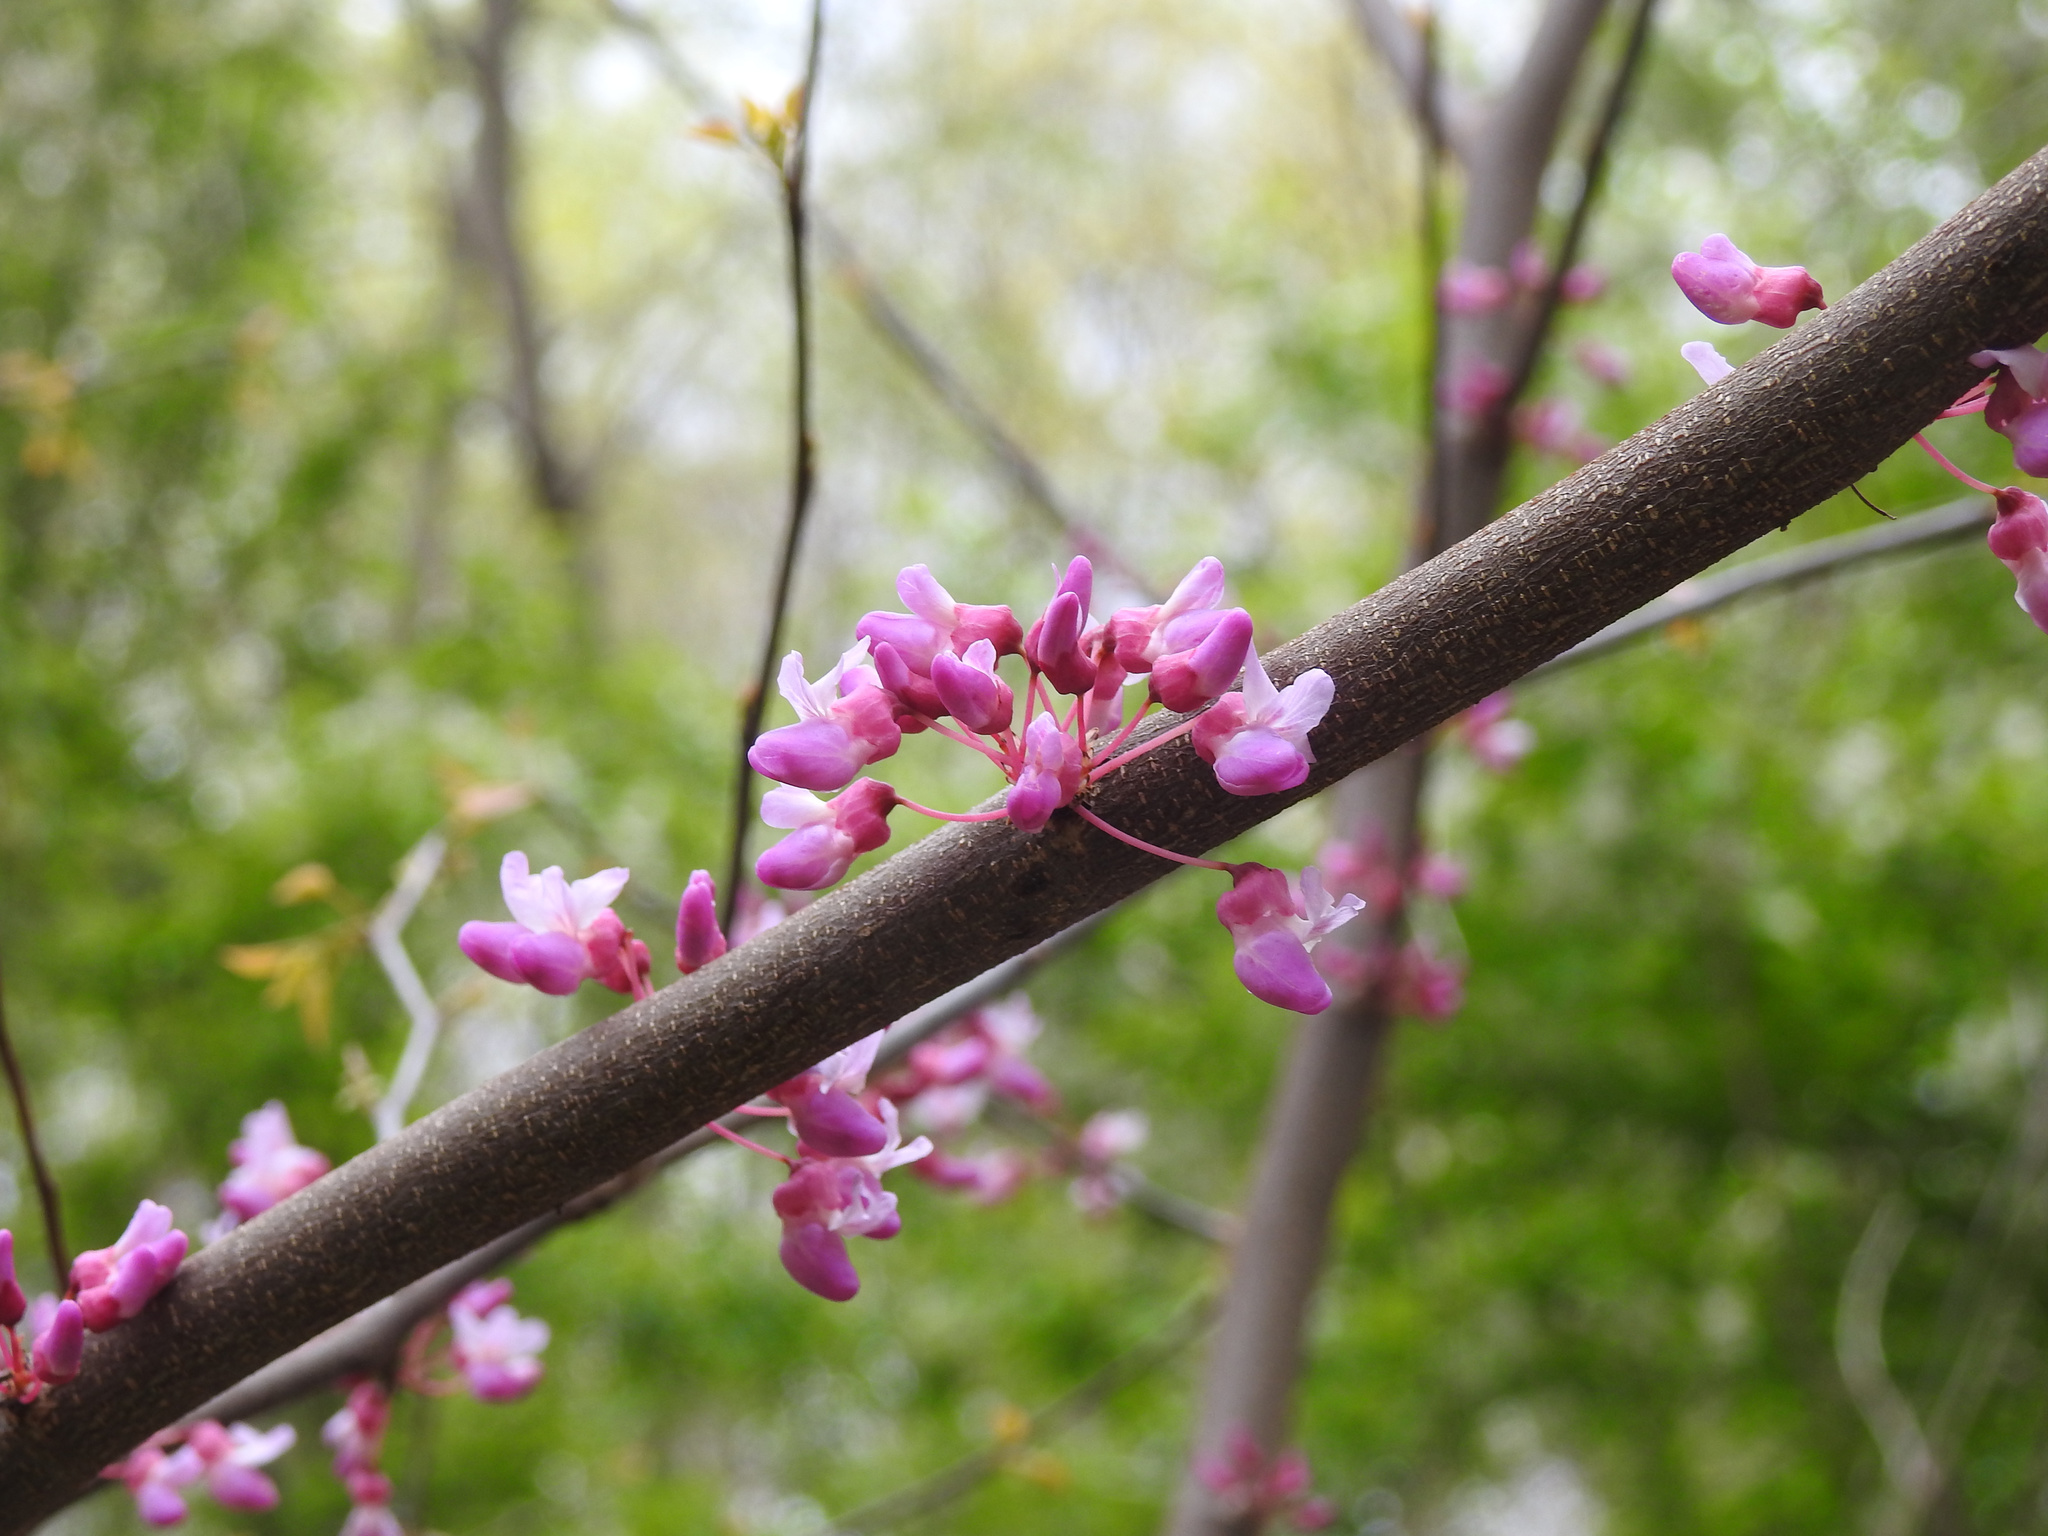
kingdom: Plantae
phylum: Tracheophyta
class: Magnoliopsida
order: Fabales
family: Fabaceae
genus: Cercis
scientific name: Cercis canadensis
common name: Eastern redbud
